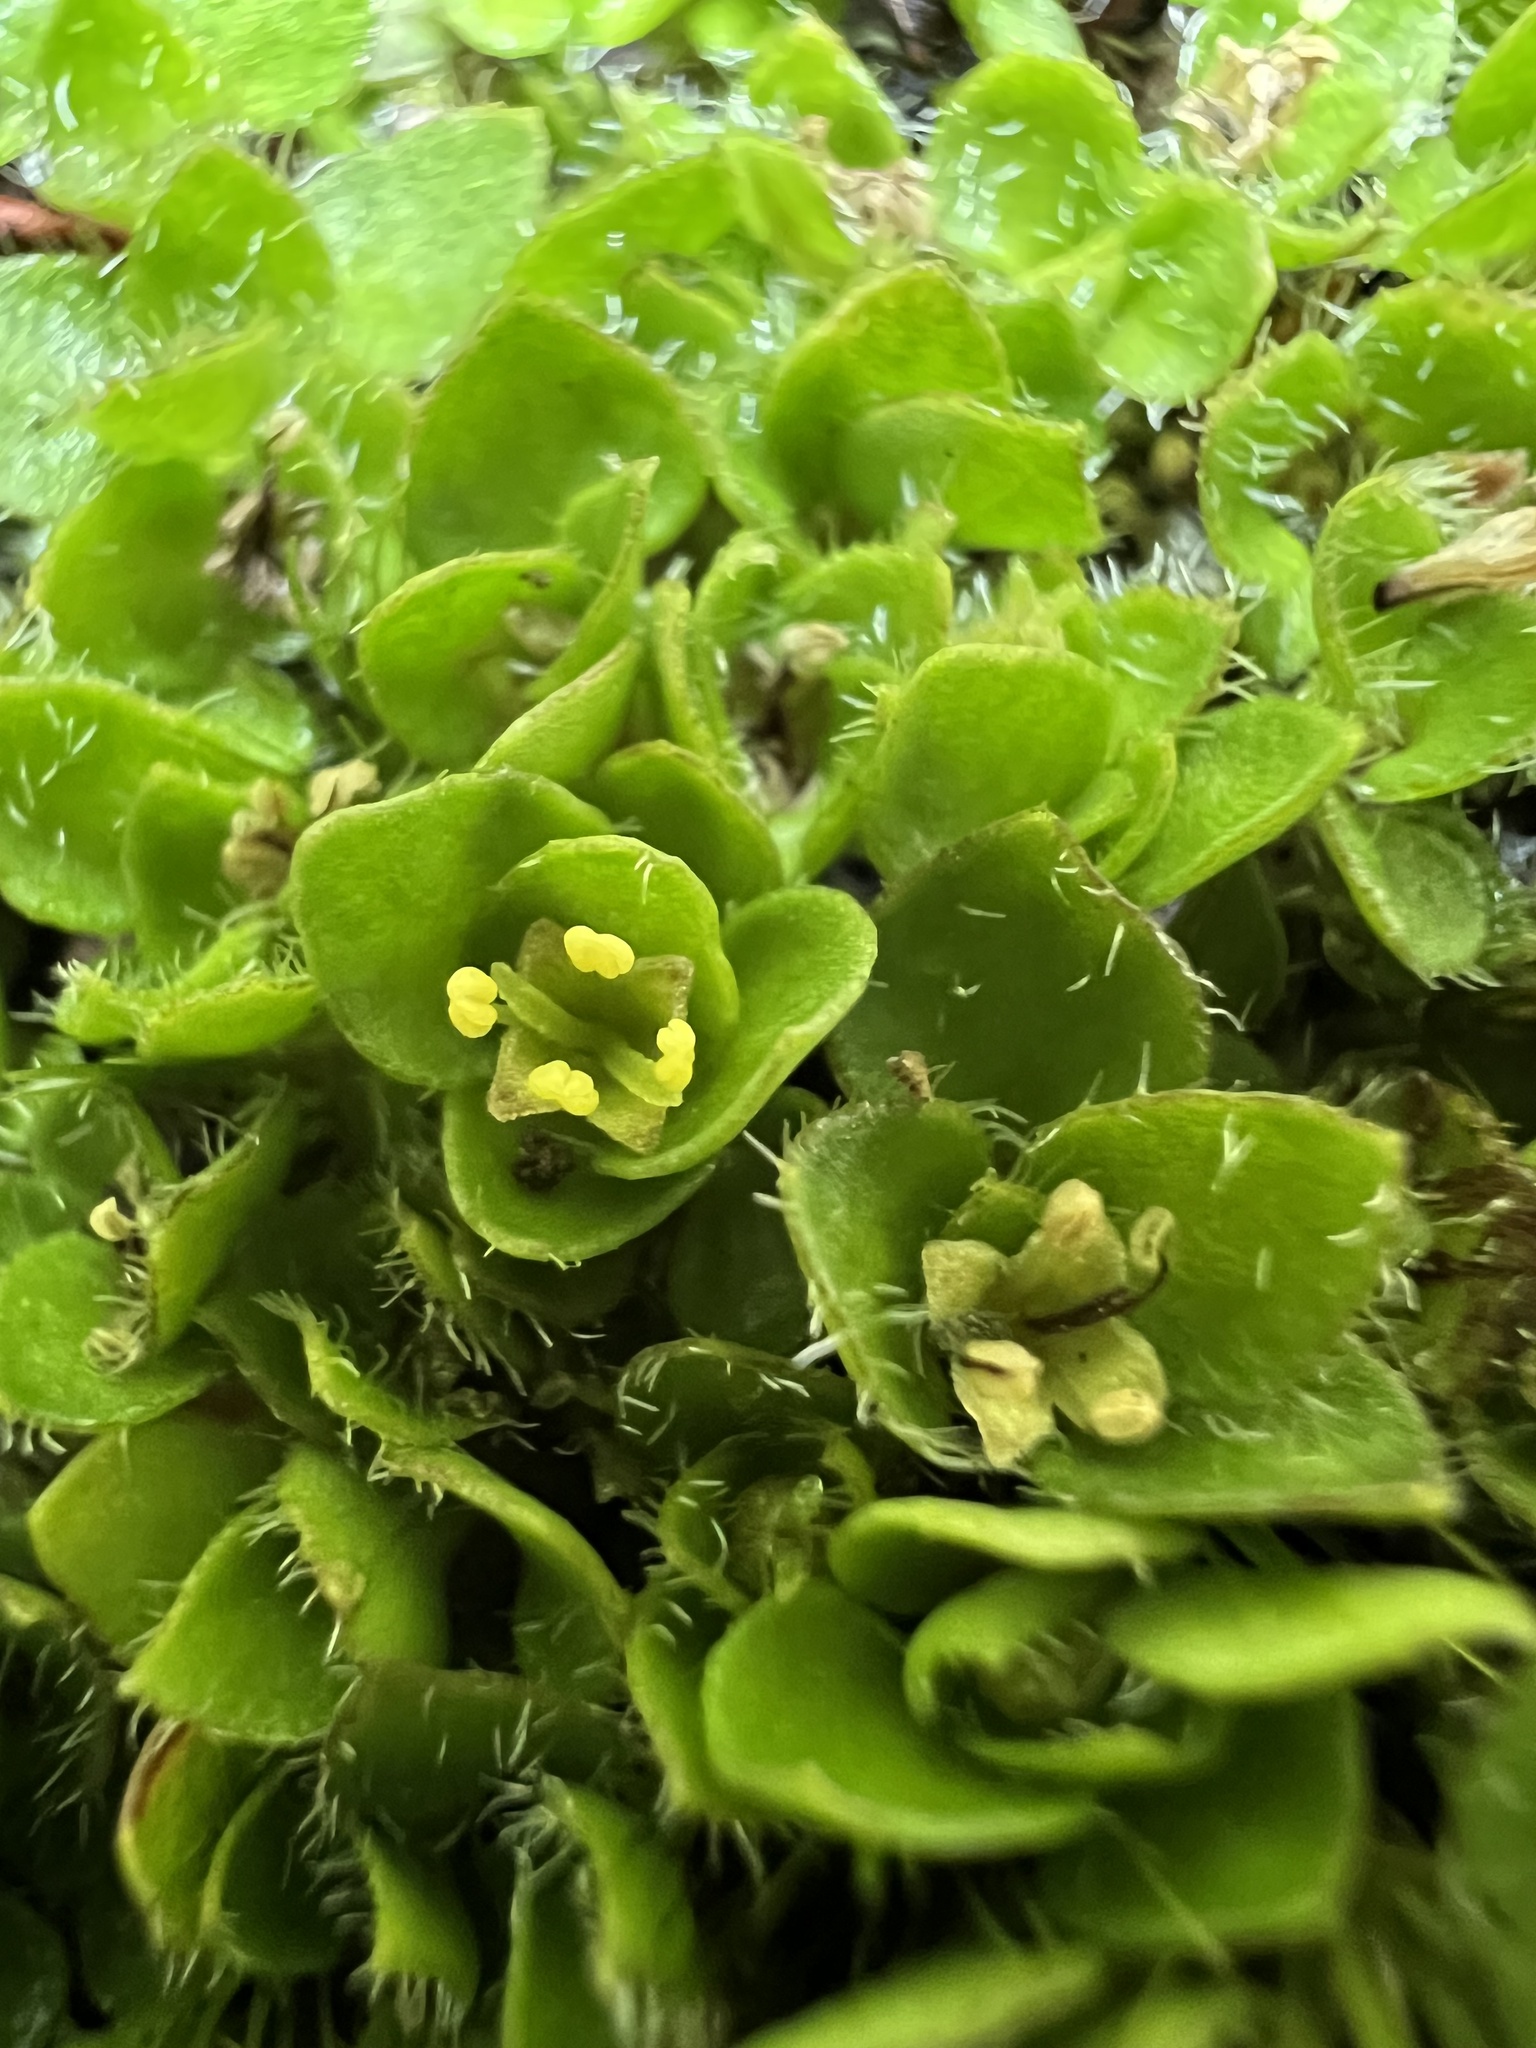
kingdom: Plantae
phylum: Tracheophyta
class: Magnoliopsida
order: Gentianales
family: Rubiaceae
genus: Nertera
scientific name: Nertera ciliata
